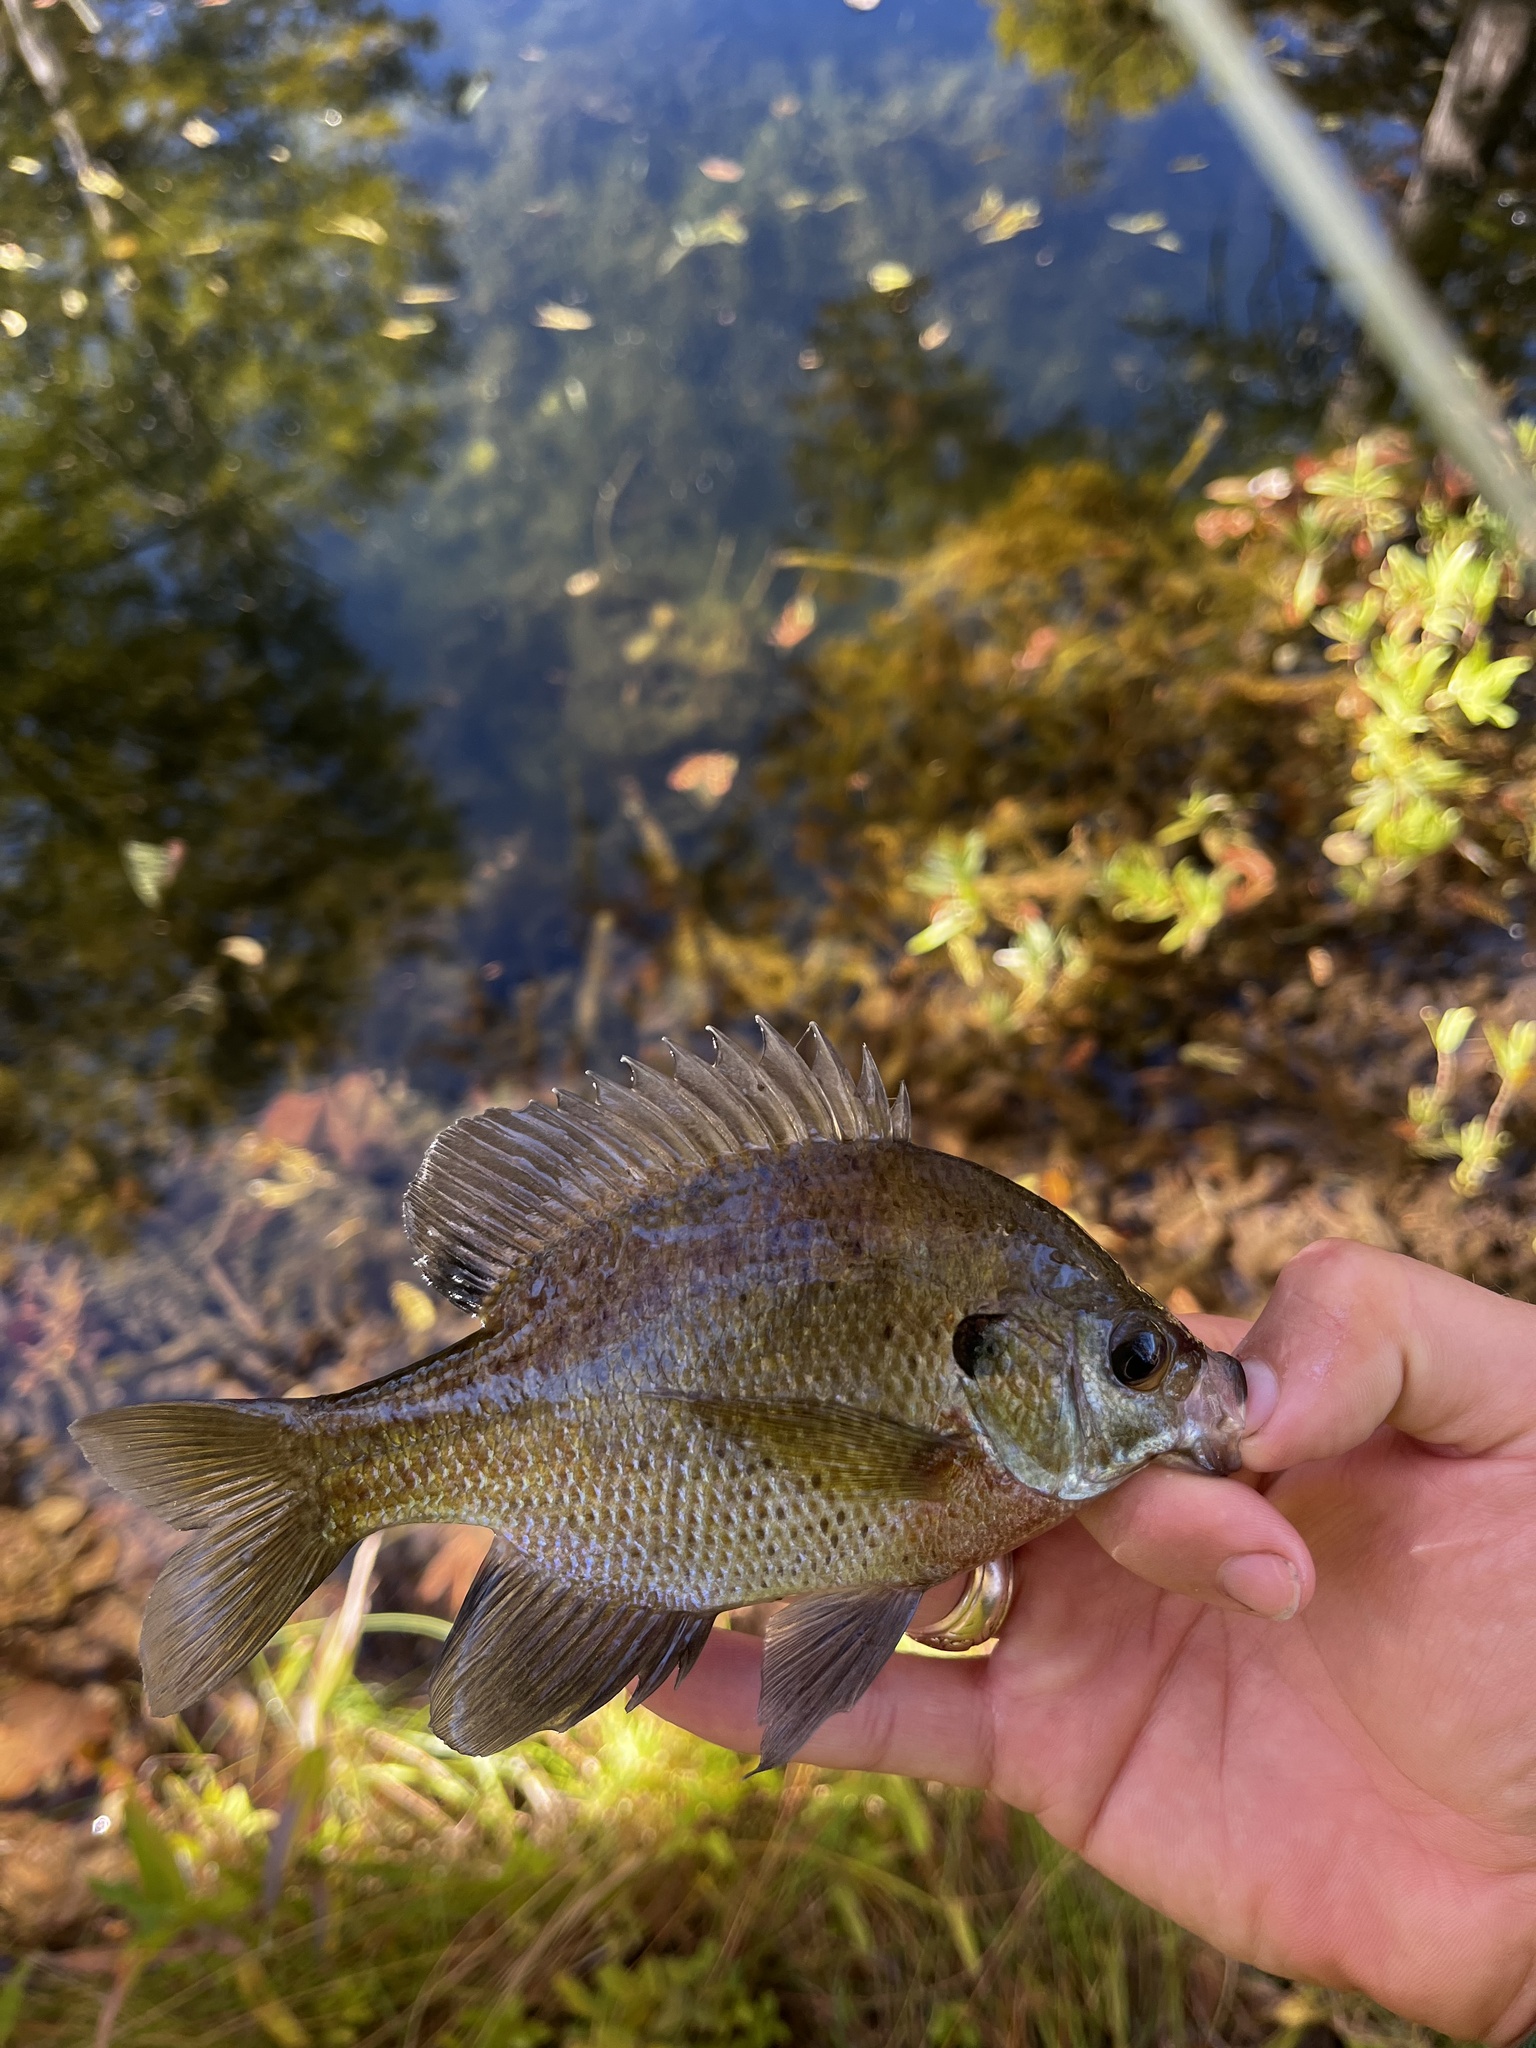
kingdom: Animalia
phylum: Chordata
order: Perciformes
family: Centrarchidae
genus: Lepomis
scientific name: Lepomis macrochirus
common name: Bluegill
